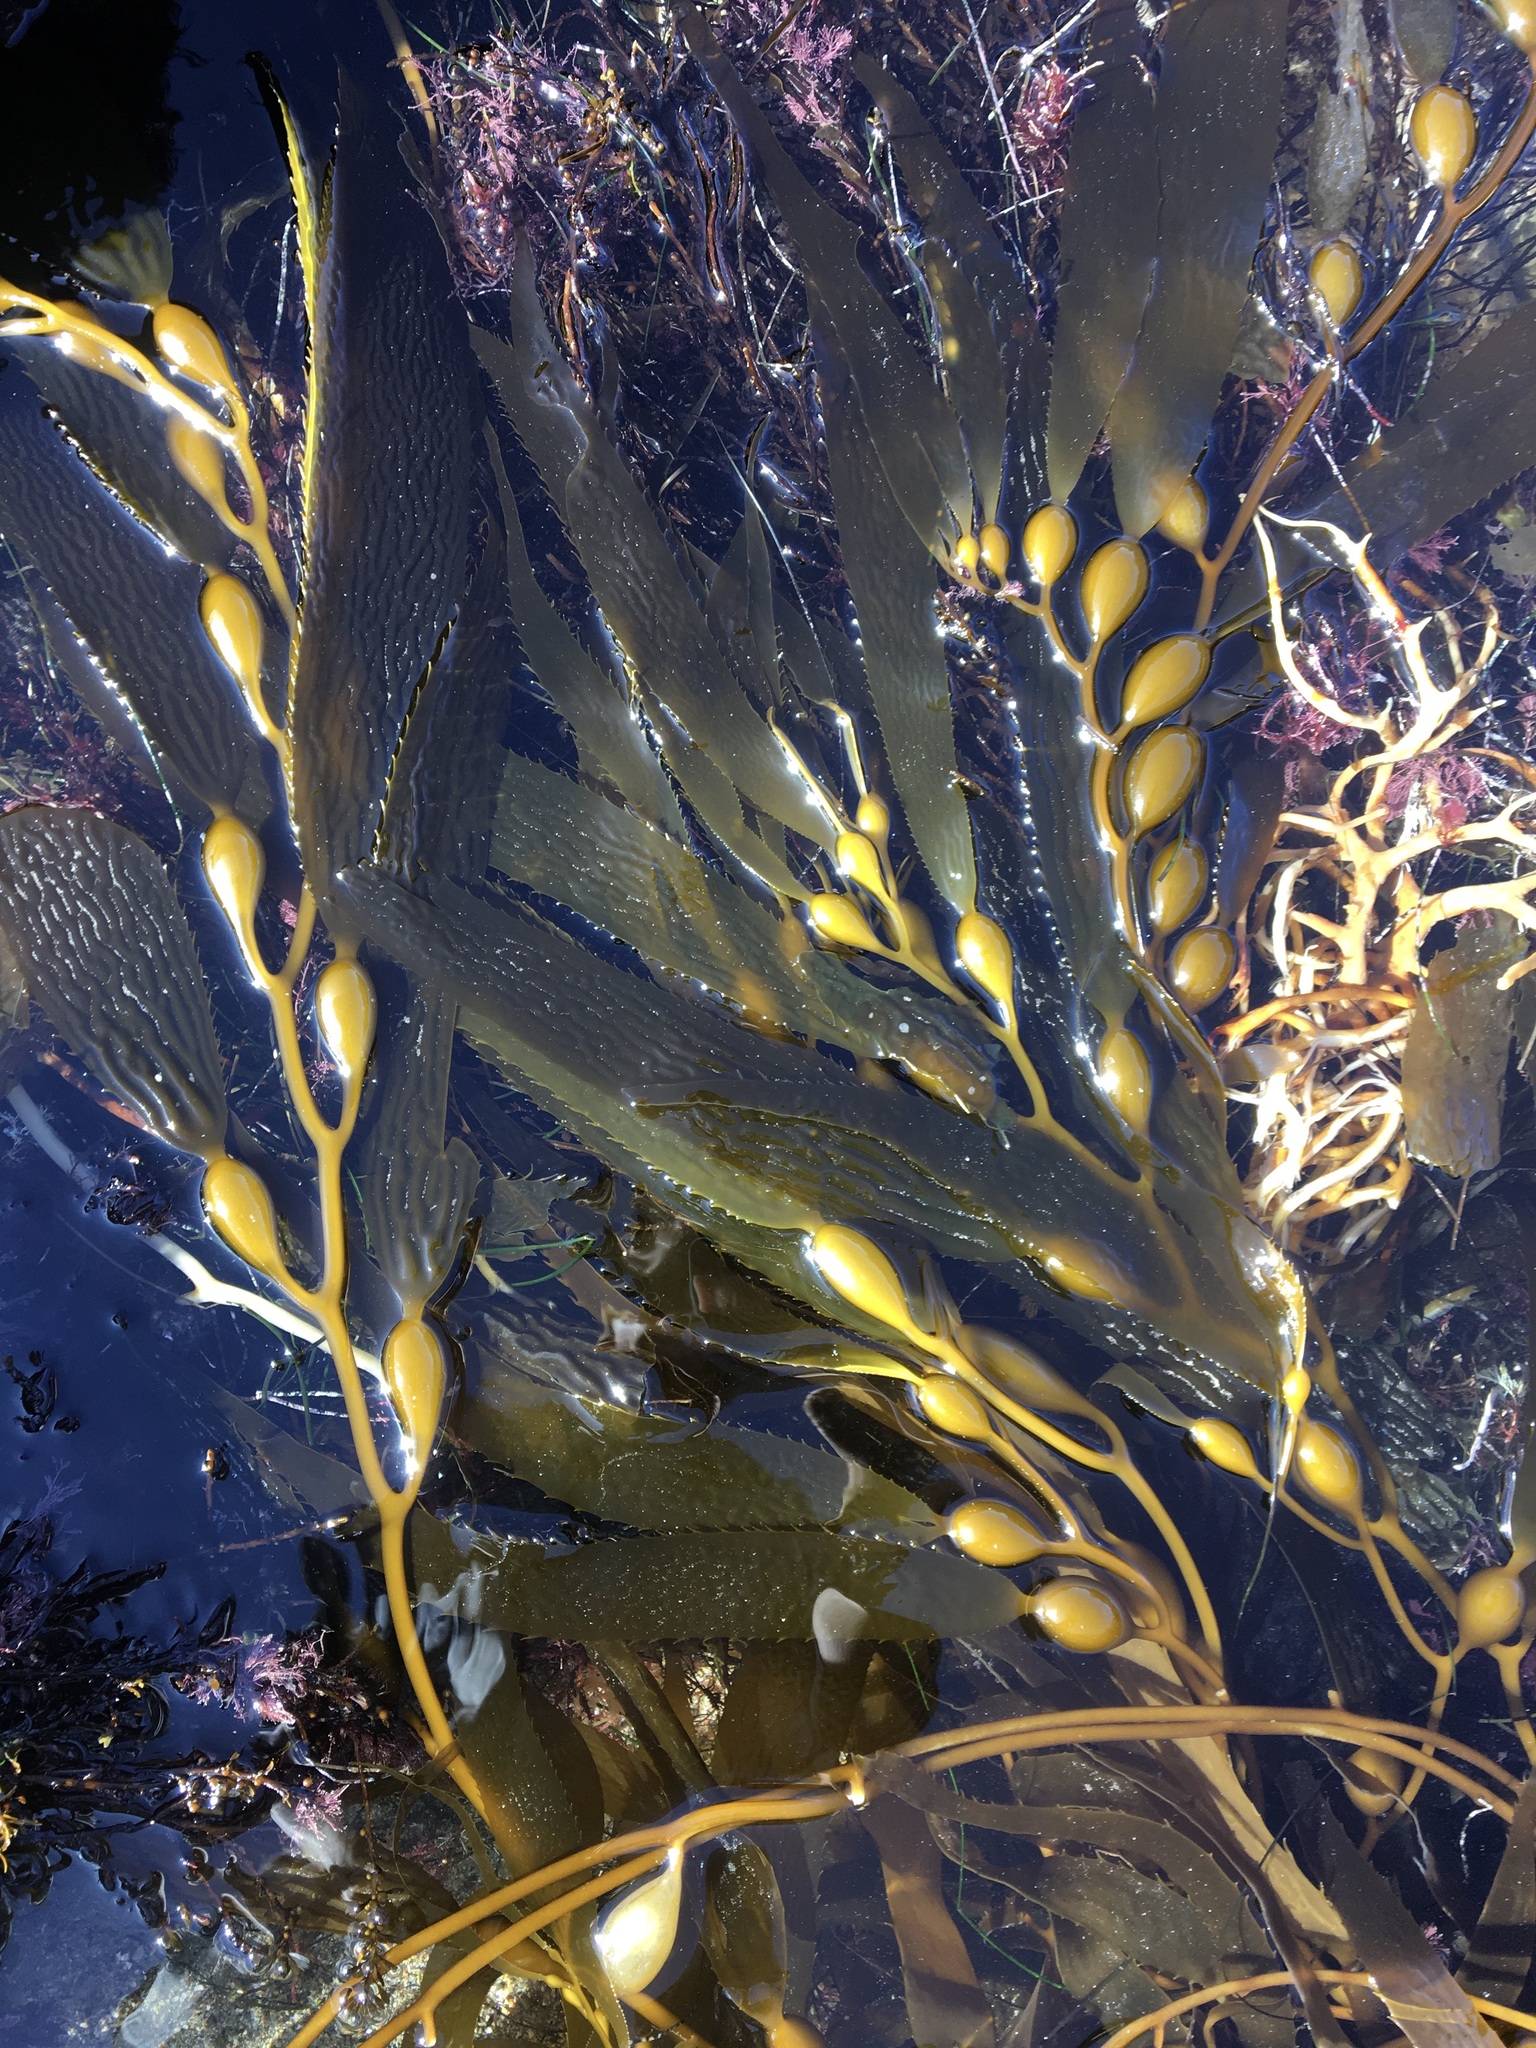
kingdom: Chromista
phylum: Ochrophyta
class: Phaeophyceae
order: Laminariales
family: Laminariaceae
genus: Macrocystis
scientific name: Macrocystis pyrifera
